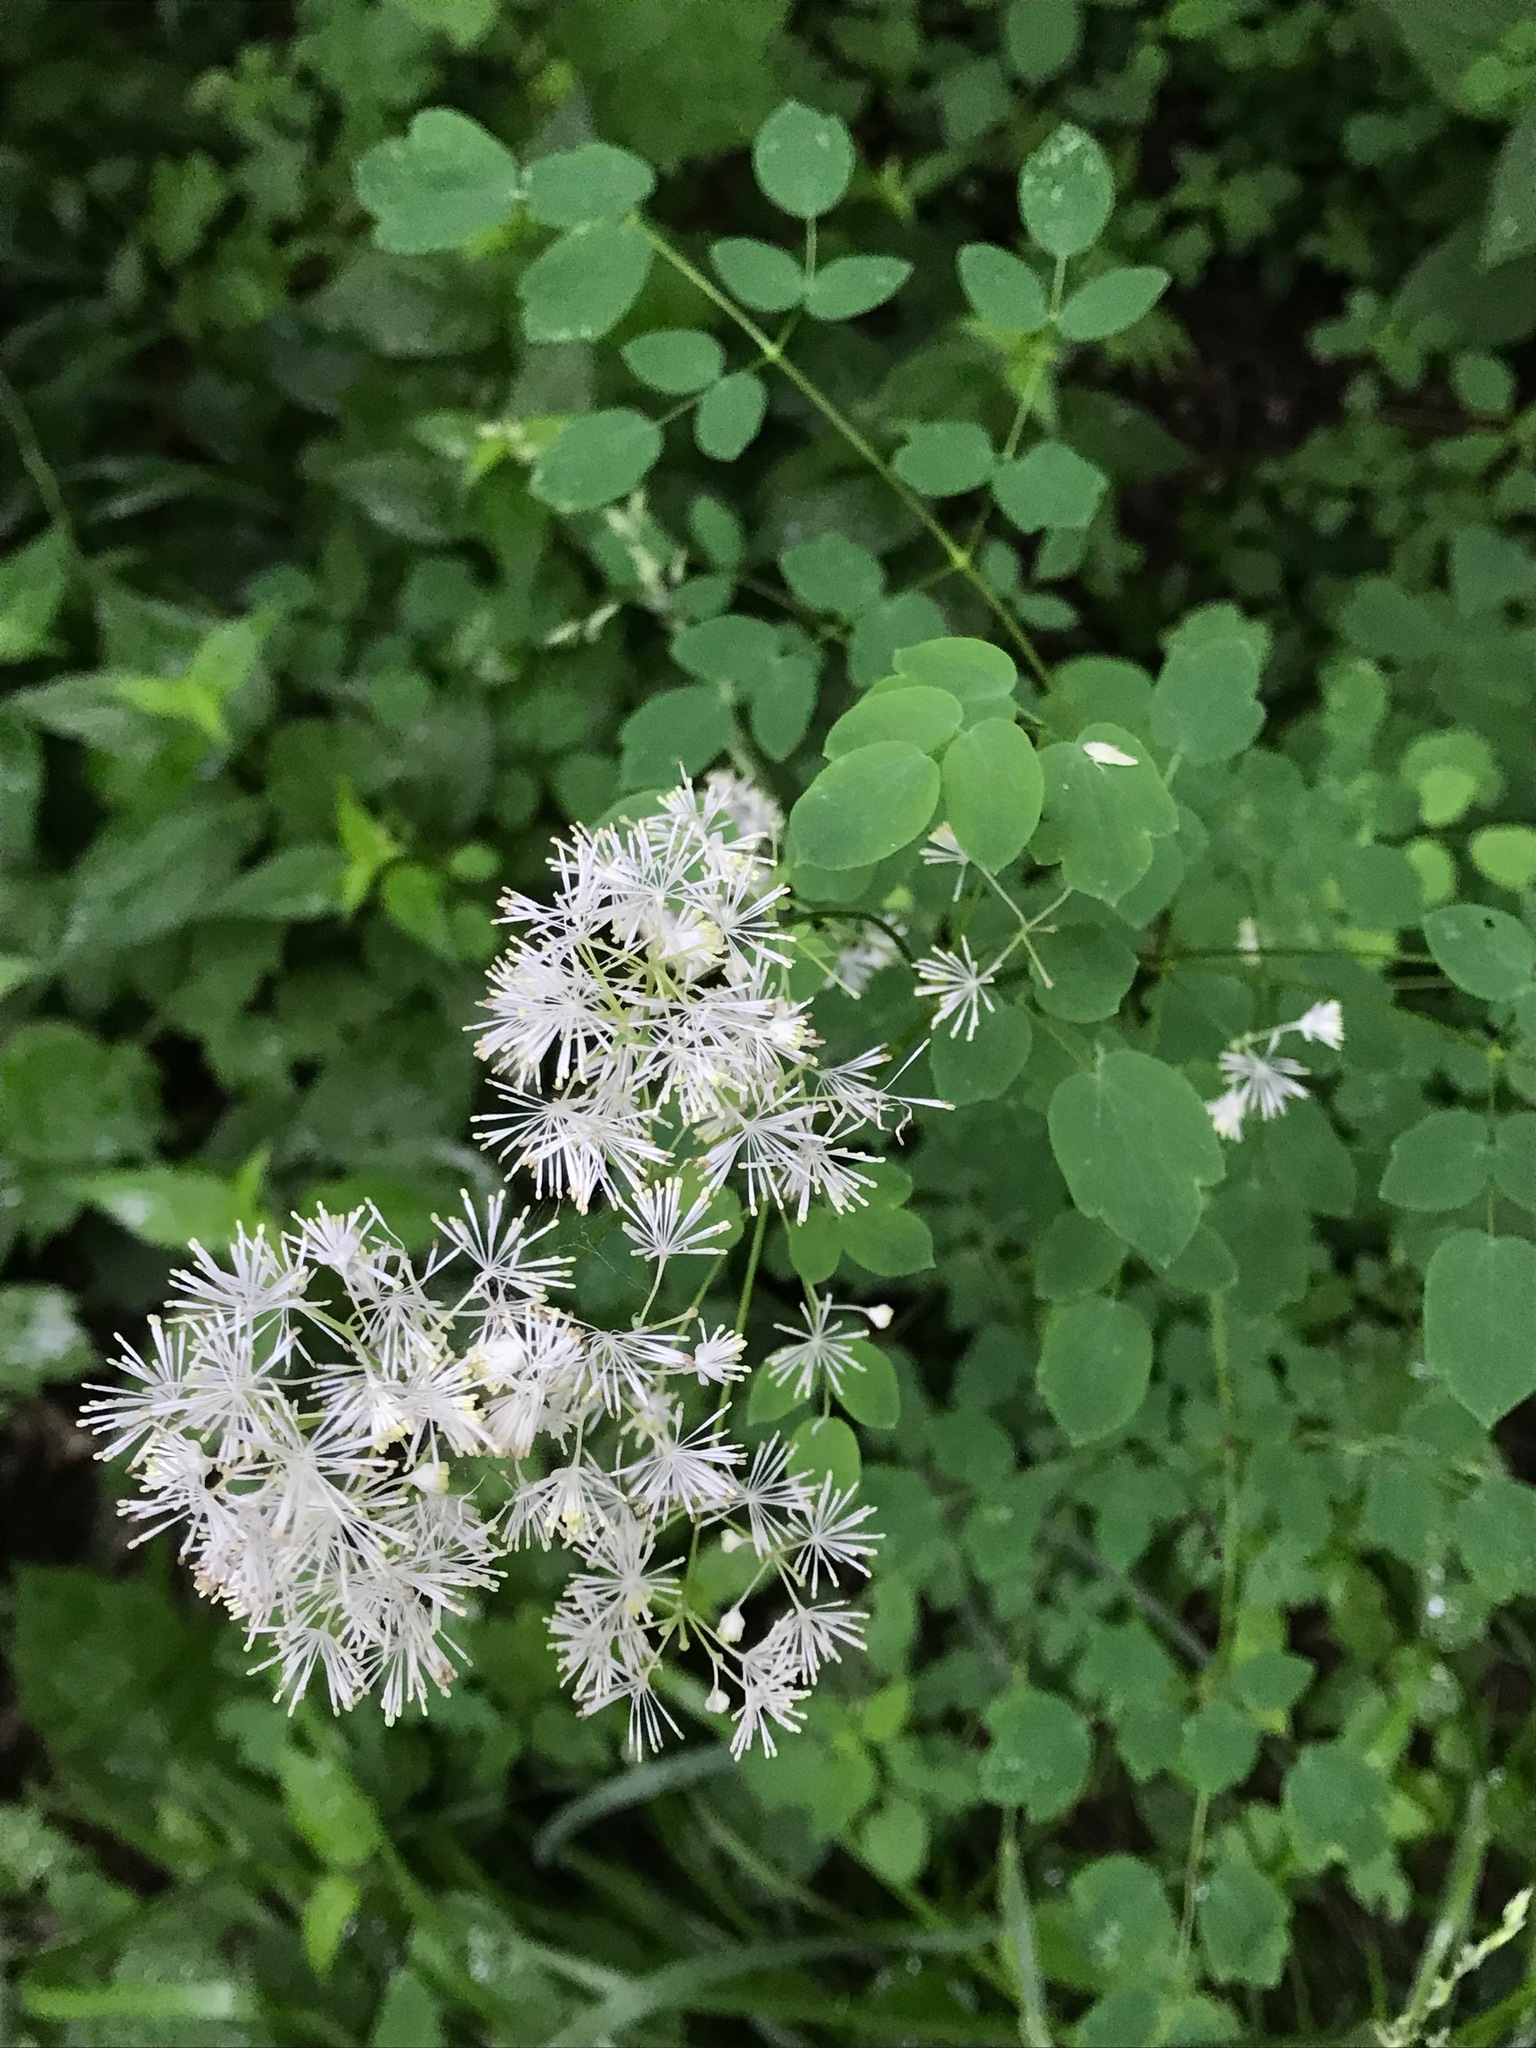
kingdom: Plantae
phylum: Tracheophyta
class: Magnoliopsida
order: Ranunculales
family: Ranunculaceae
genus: Thalictrum
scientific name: Thalictrum pubescens
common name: King-of-the-meadow
